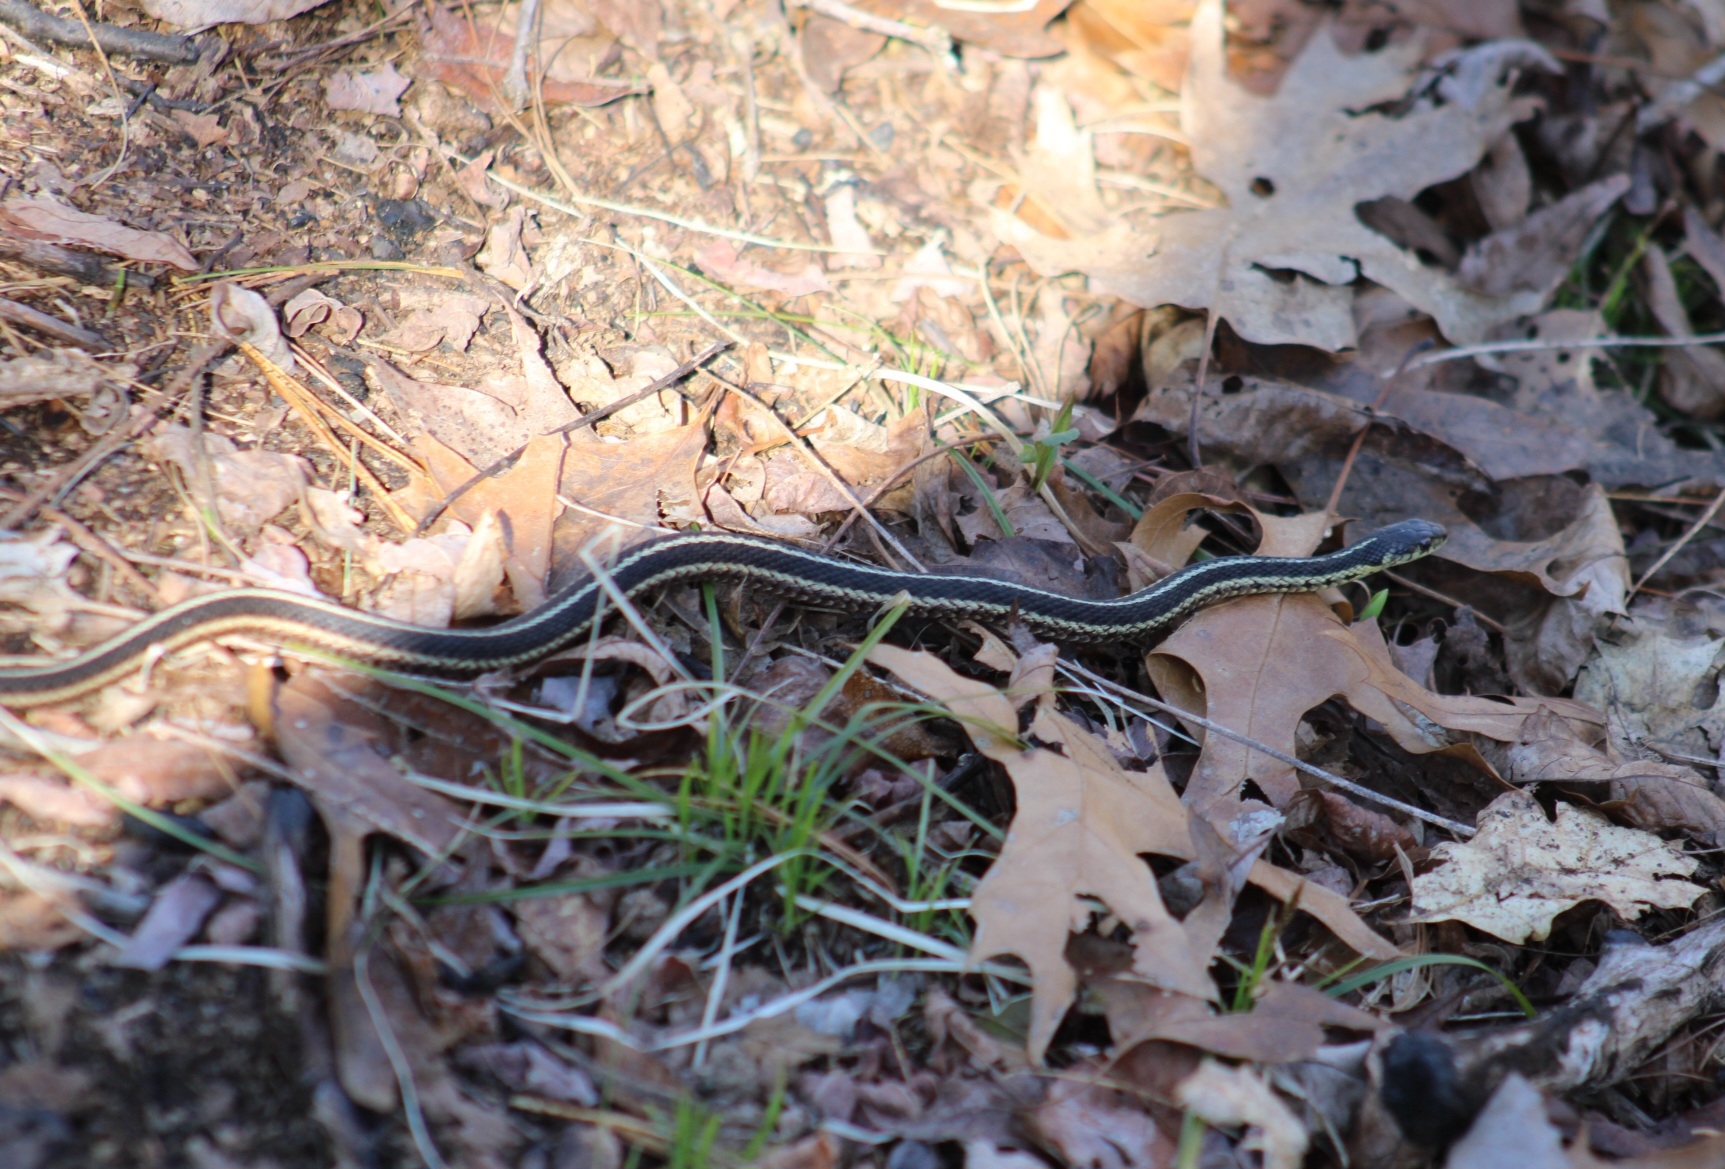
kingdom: Animalia
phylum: Chordata
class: Squamata
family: Colubridae
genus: Thamnophis
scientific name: Thamnophis sirtalis
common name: Common garter snake
